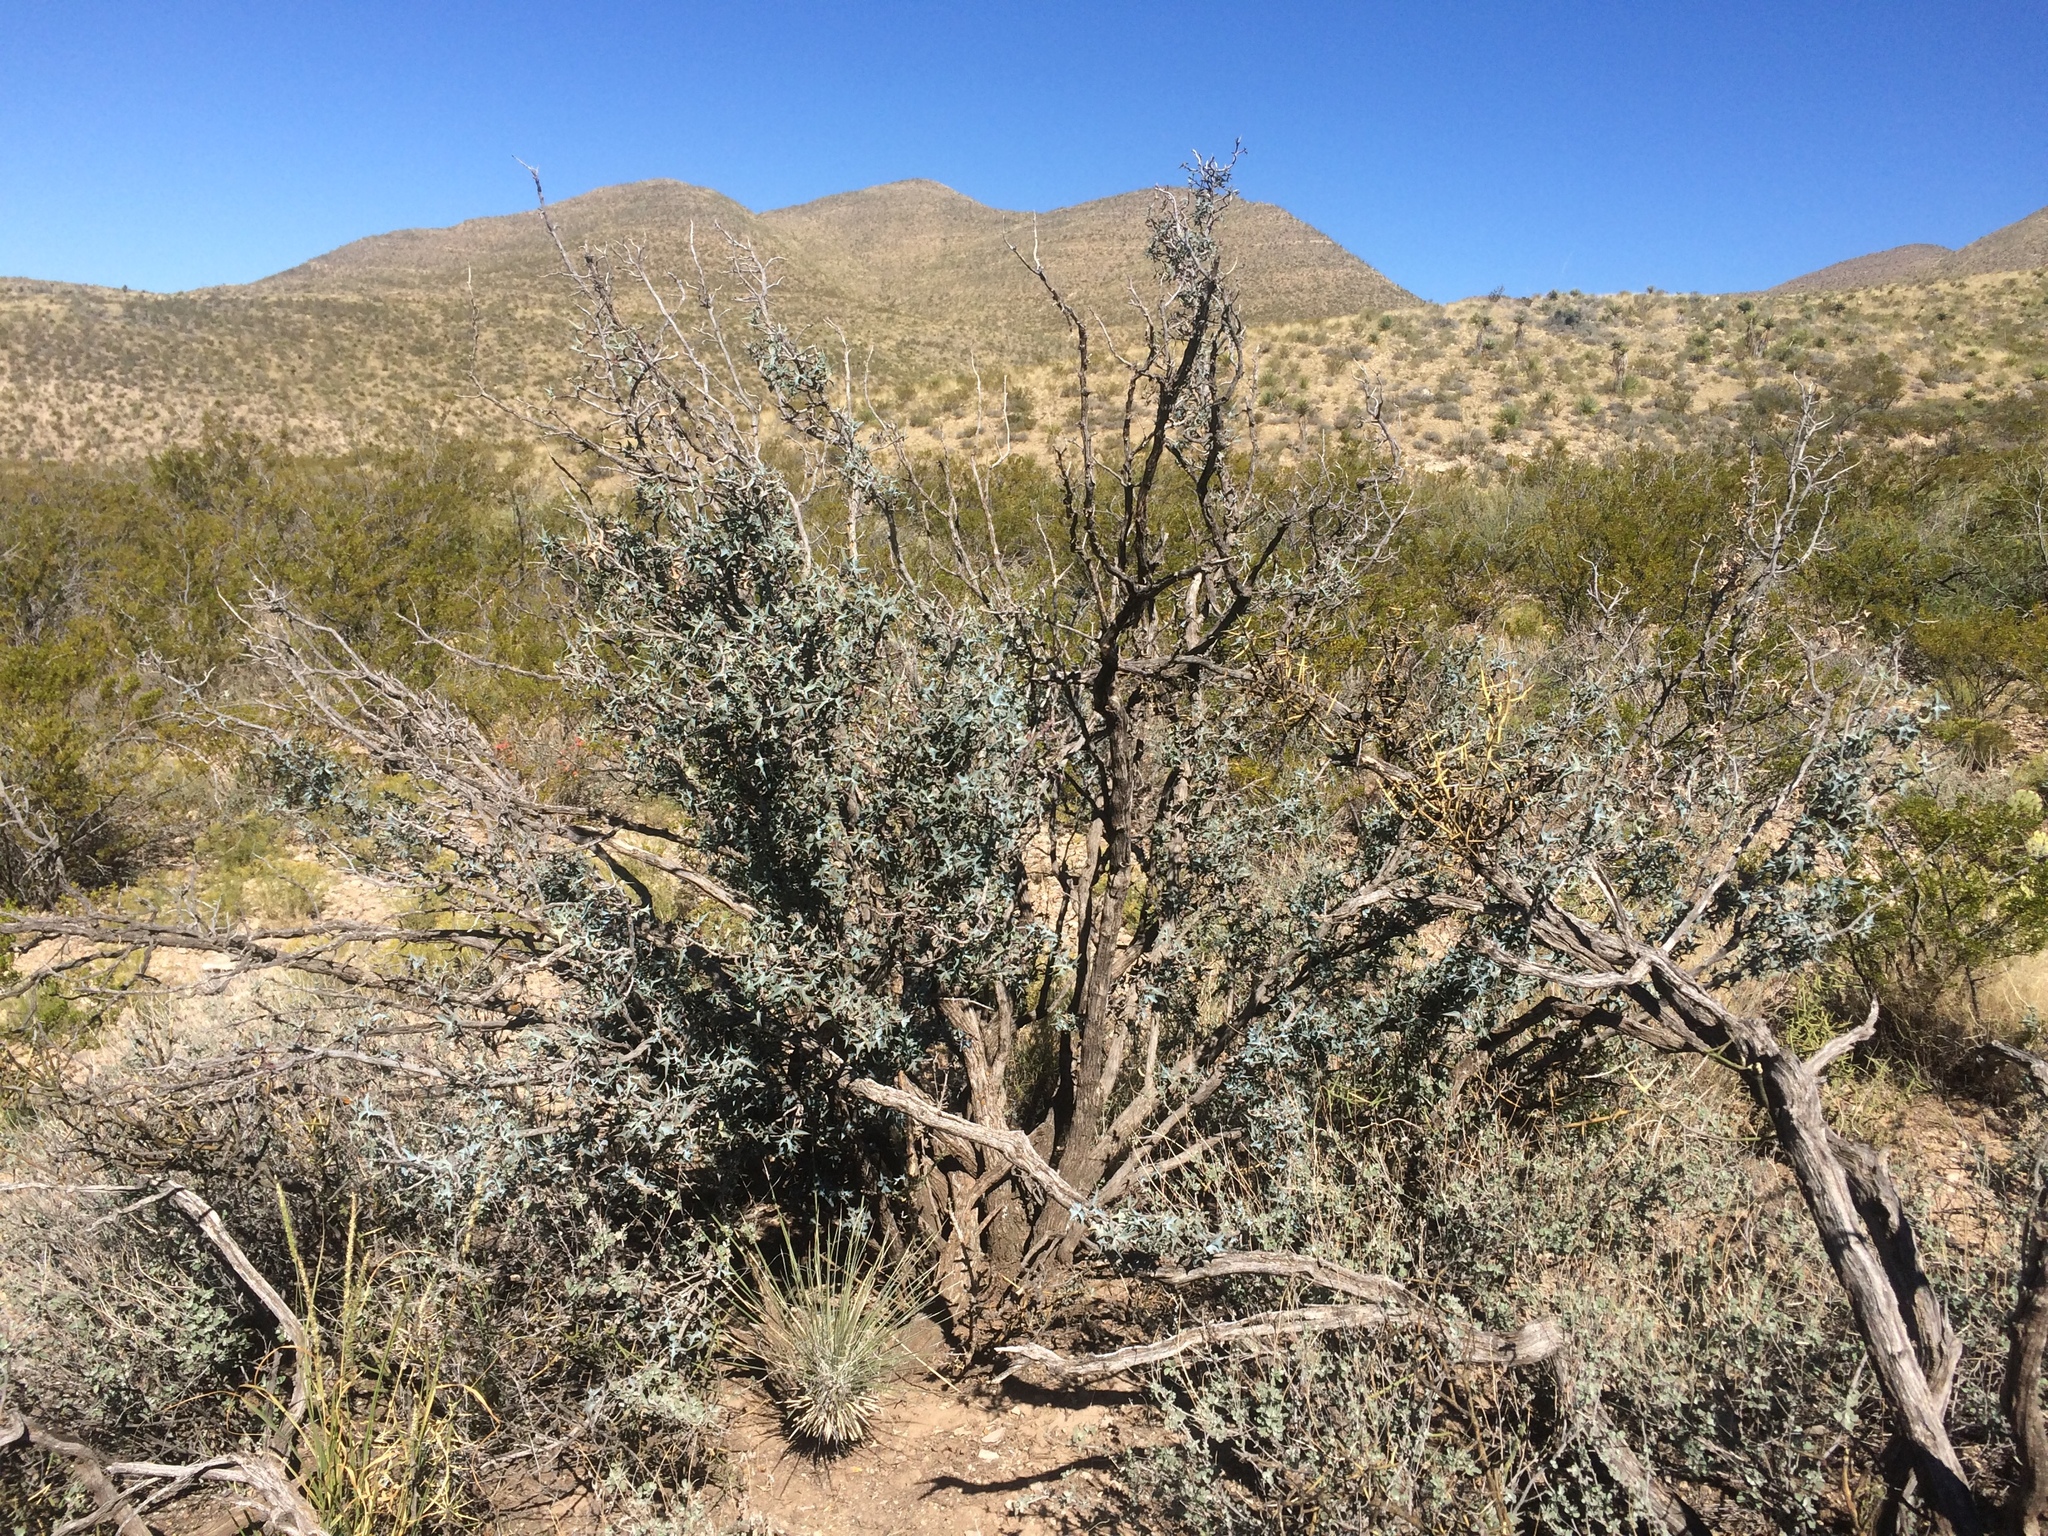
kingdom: Plantae
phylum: Tracheophyta
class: Magnoliopsida
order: Ranunculales
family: Berberidaceae
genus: Alloberberis
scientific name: Alloberberis trifoliolata
